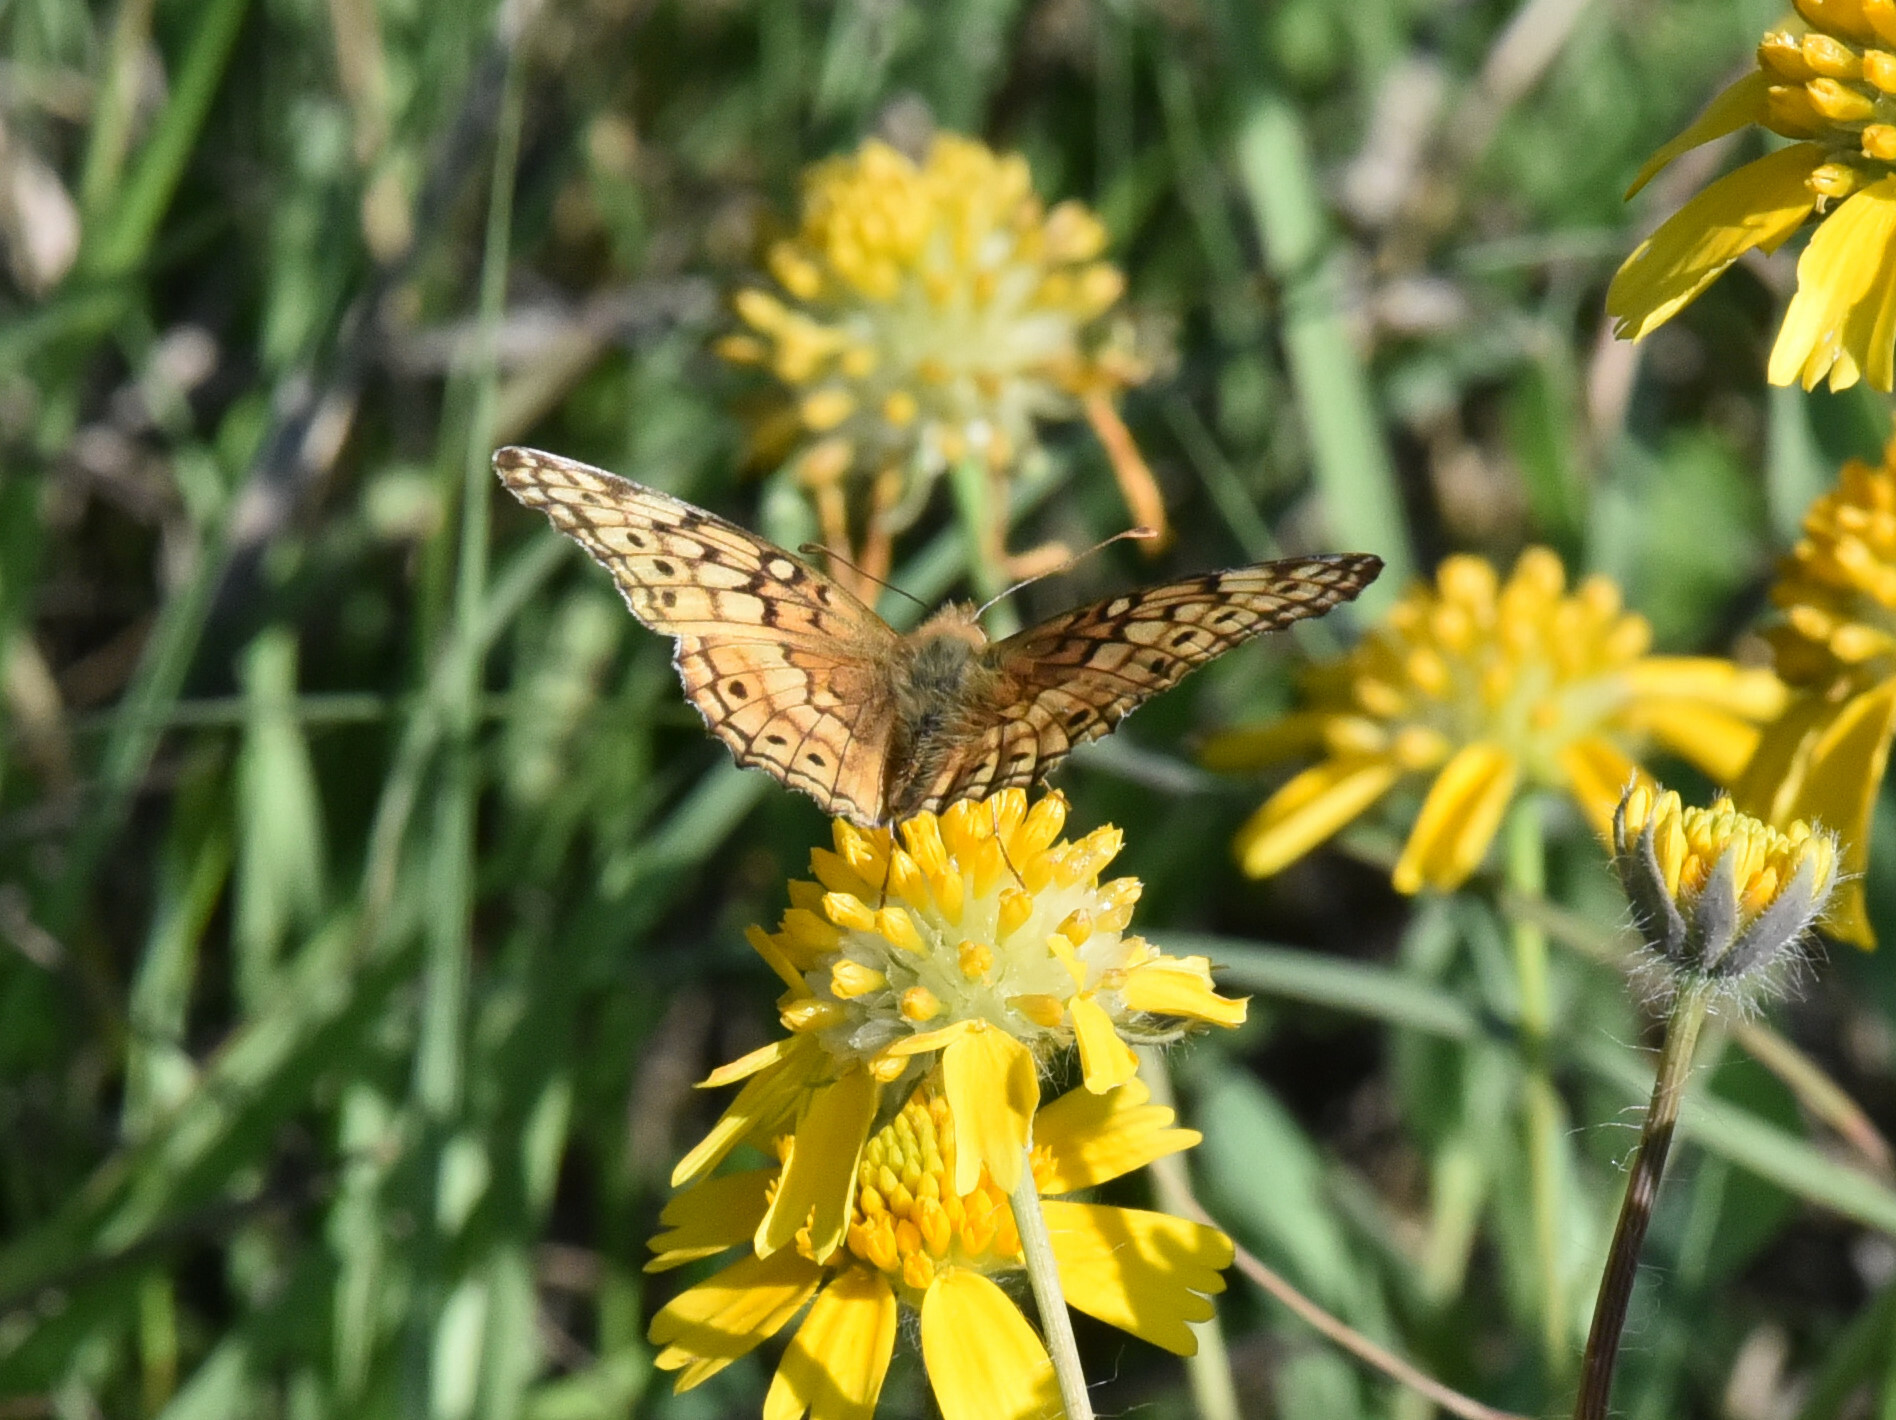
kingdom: Animalia
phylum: Arthropoda
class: Insecta
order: Lepidoptera
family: Nymphalidae
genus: Euptoieta
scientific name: Euptoieta claudia
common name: Variegated fritillary
